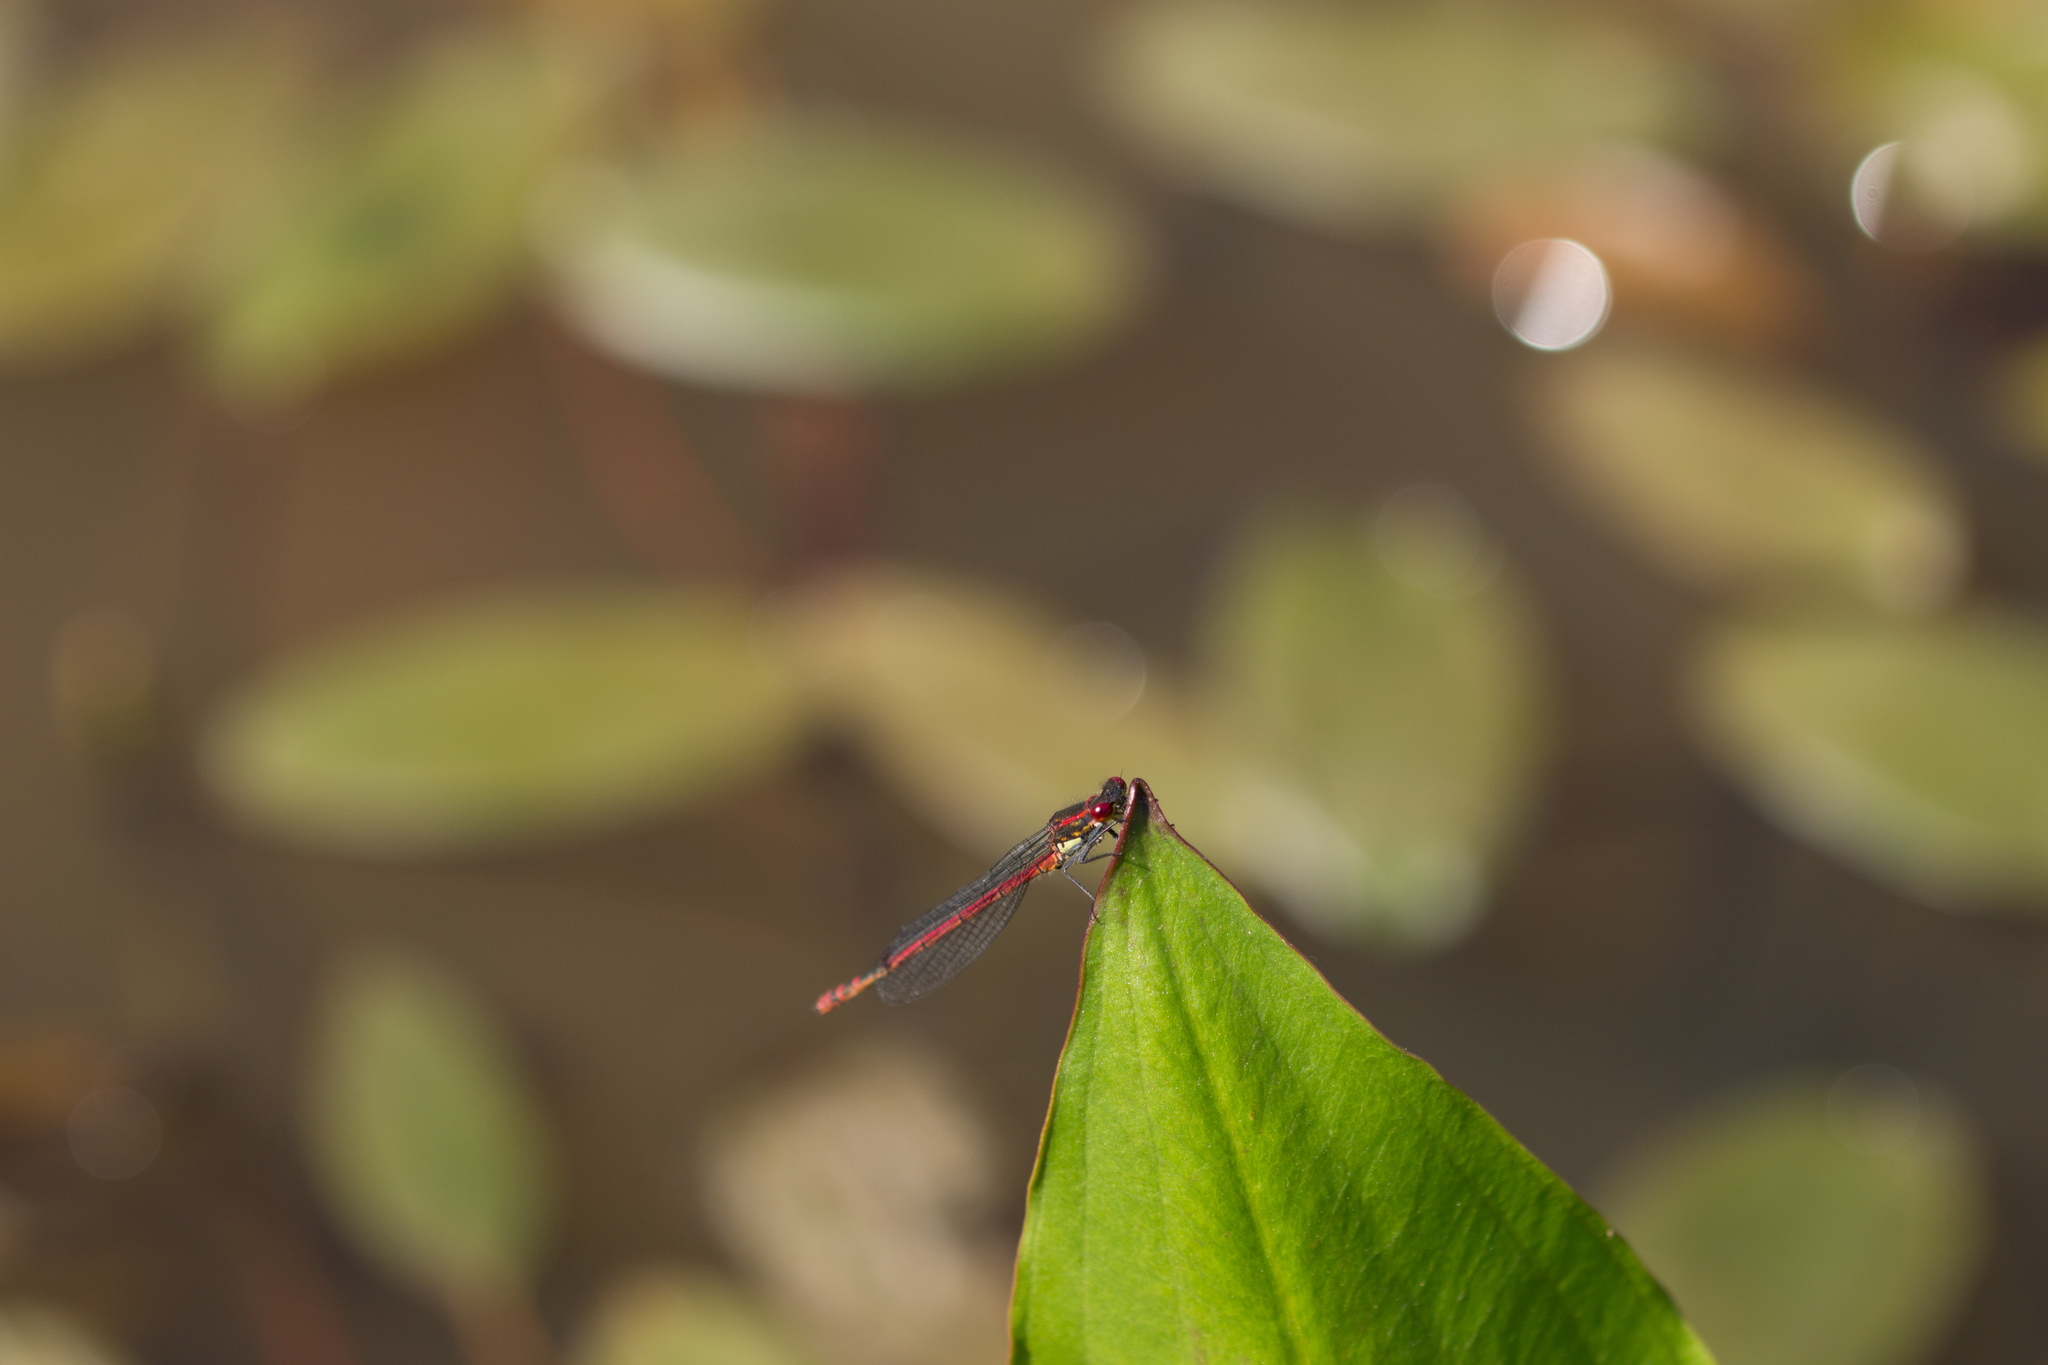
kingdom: Animalia
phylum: Arthropoda
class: Insecta
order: Odonata
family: Coenagrionidae
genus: Pyrrhosoma
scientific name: Pyrrhosoma nymphula
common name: Large red damsel
